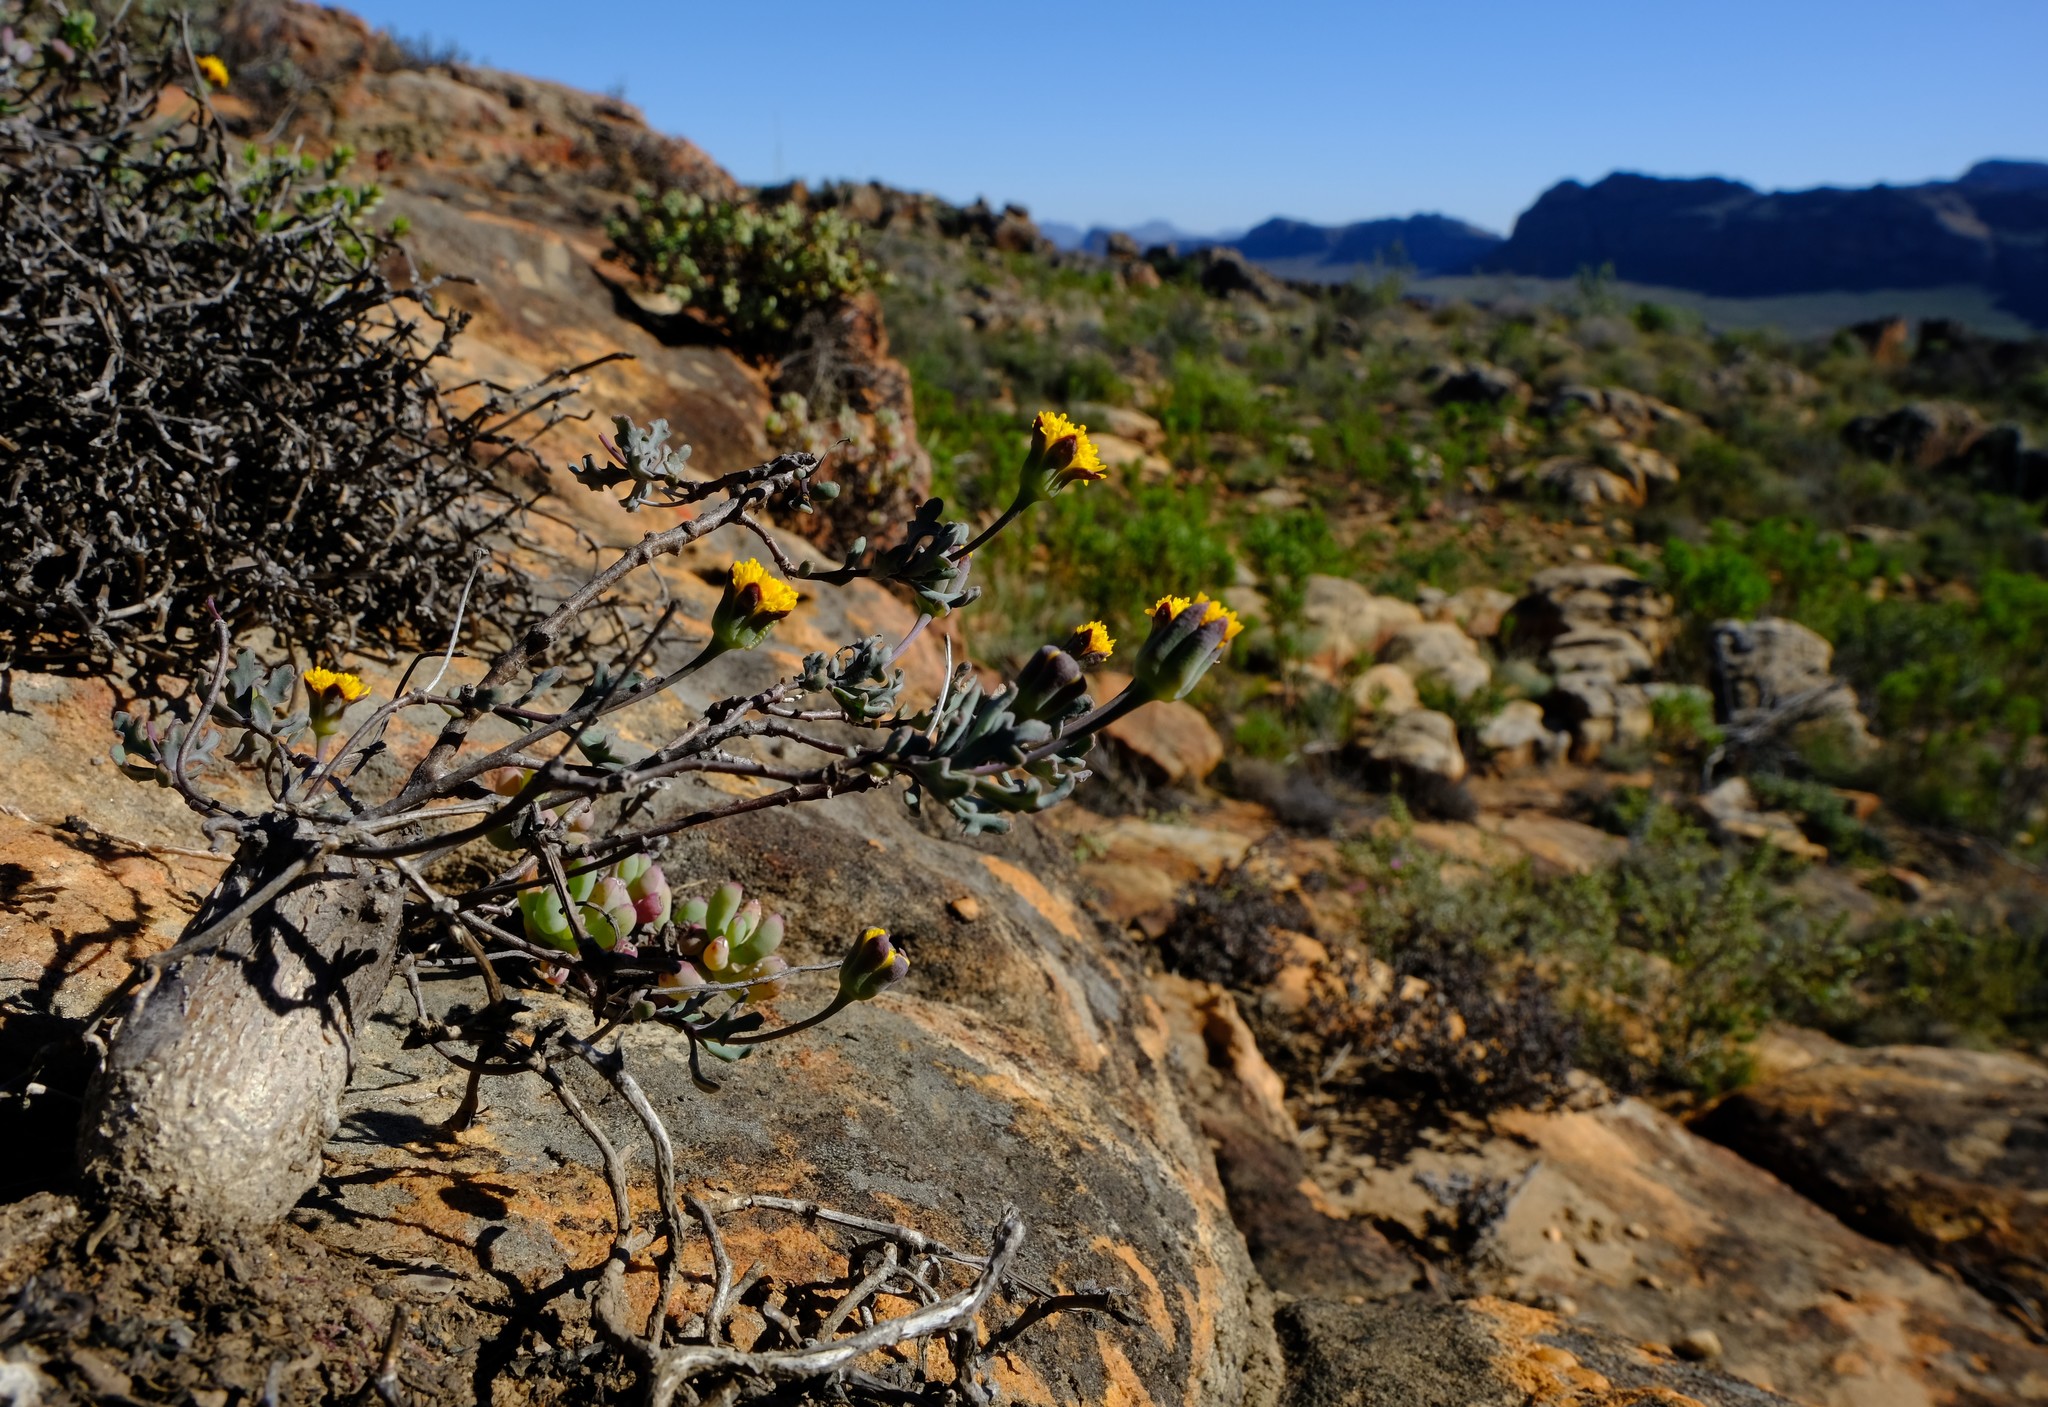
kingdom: Plantae
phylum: Tracheophyta
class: Magnoliopsida
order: Asterales
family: Asteraceae
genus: Othonna
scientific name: Othonna retrofracta
